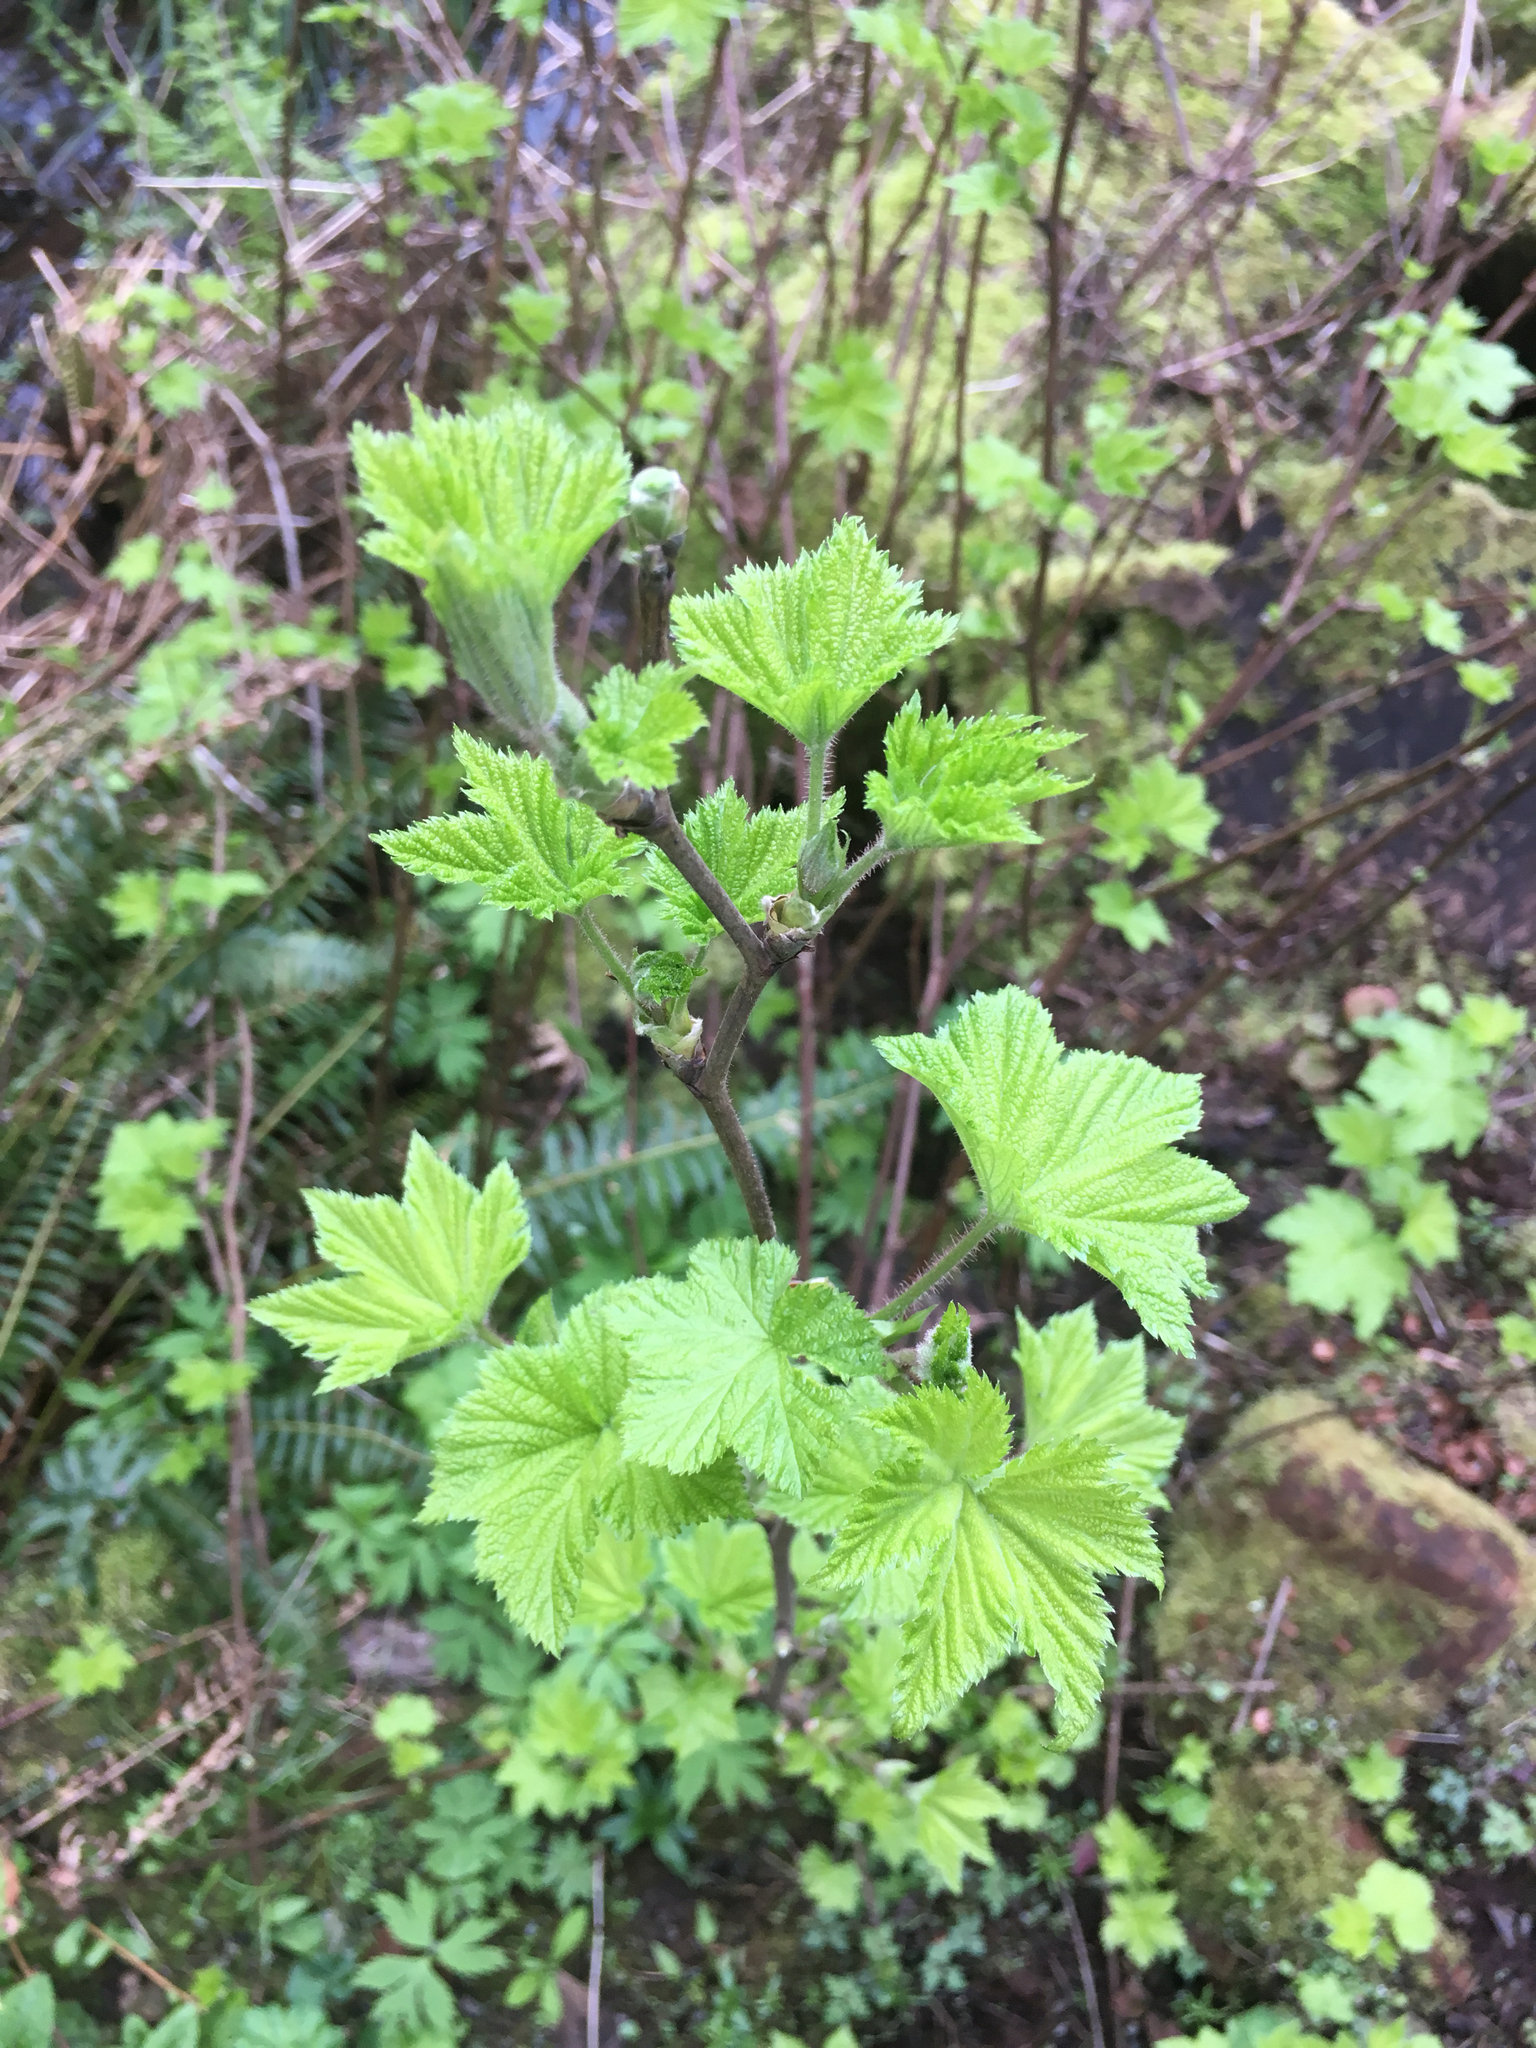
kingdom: Plantae
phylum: Tracheophyta
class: Magnoliopsida
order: Rosales
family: Rosaceae
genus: Rubus
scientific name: Rubus parviflorus
